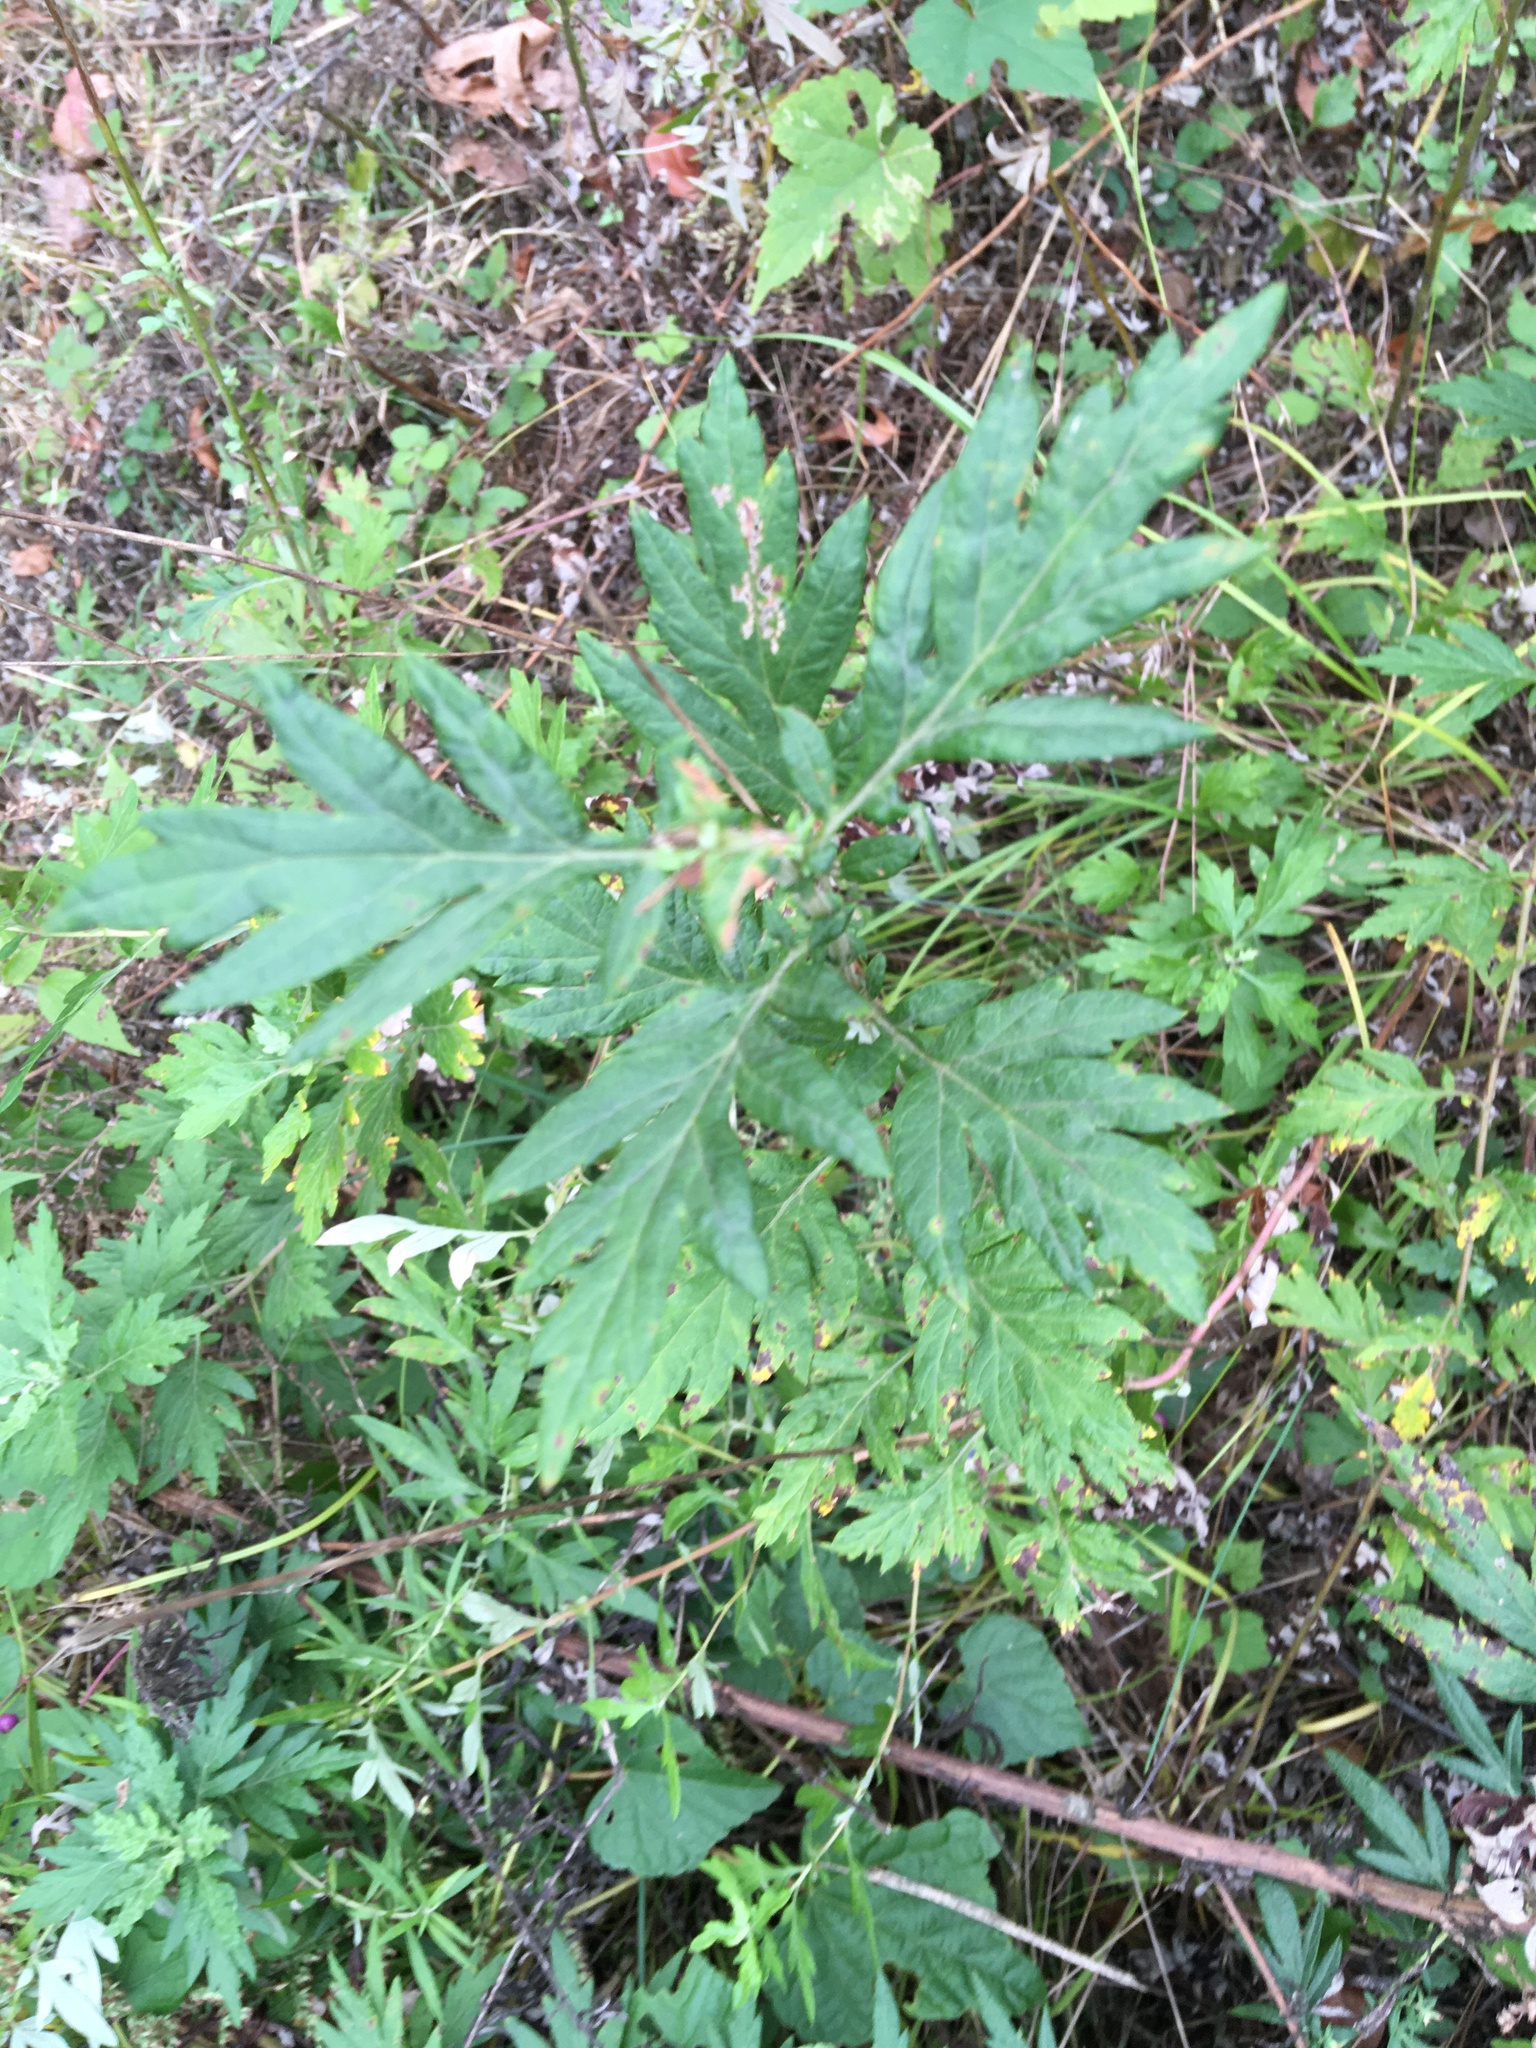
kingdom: Plantae
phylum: Tracheophyta
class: Magnoliopsida
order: Asterales
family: Asteraceae
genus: Artemisia
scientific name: Artemisia vulgaris
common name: Mugwort
